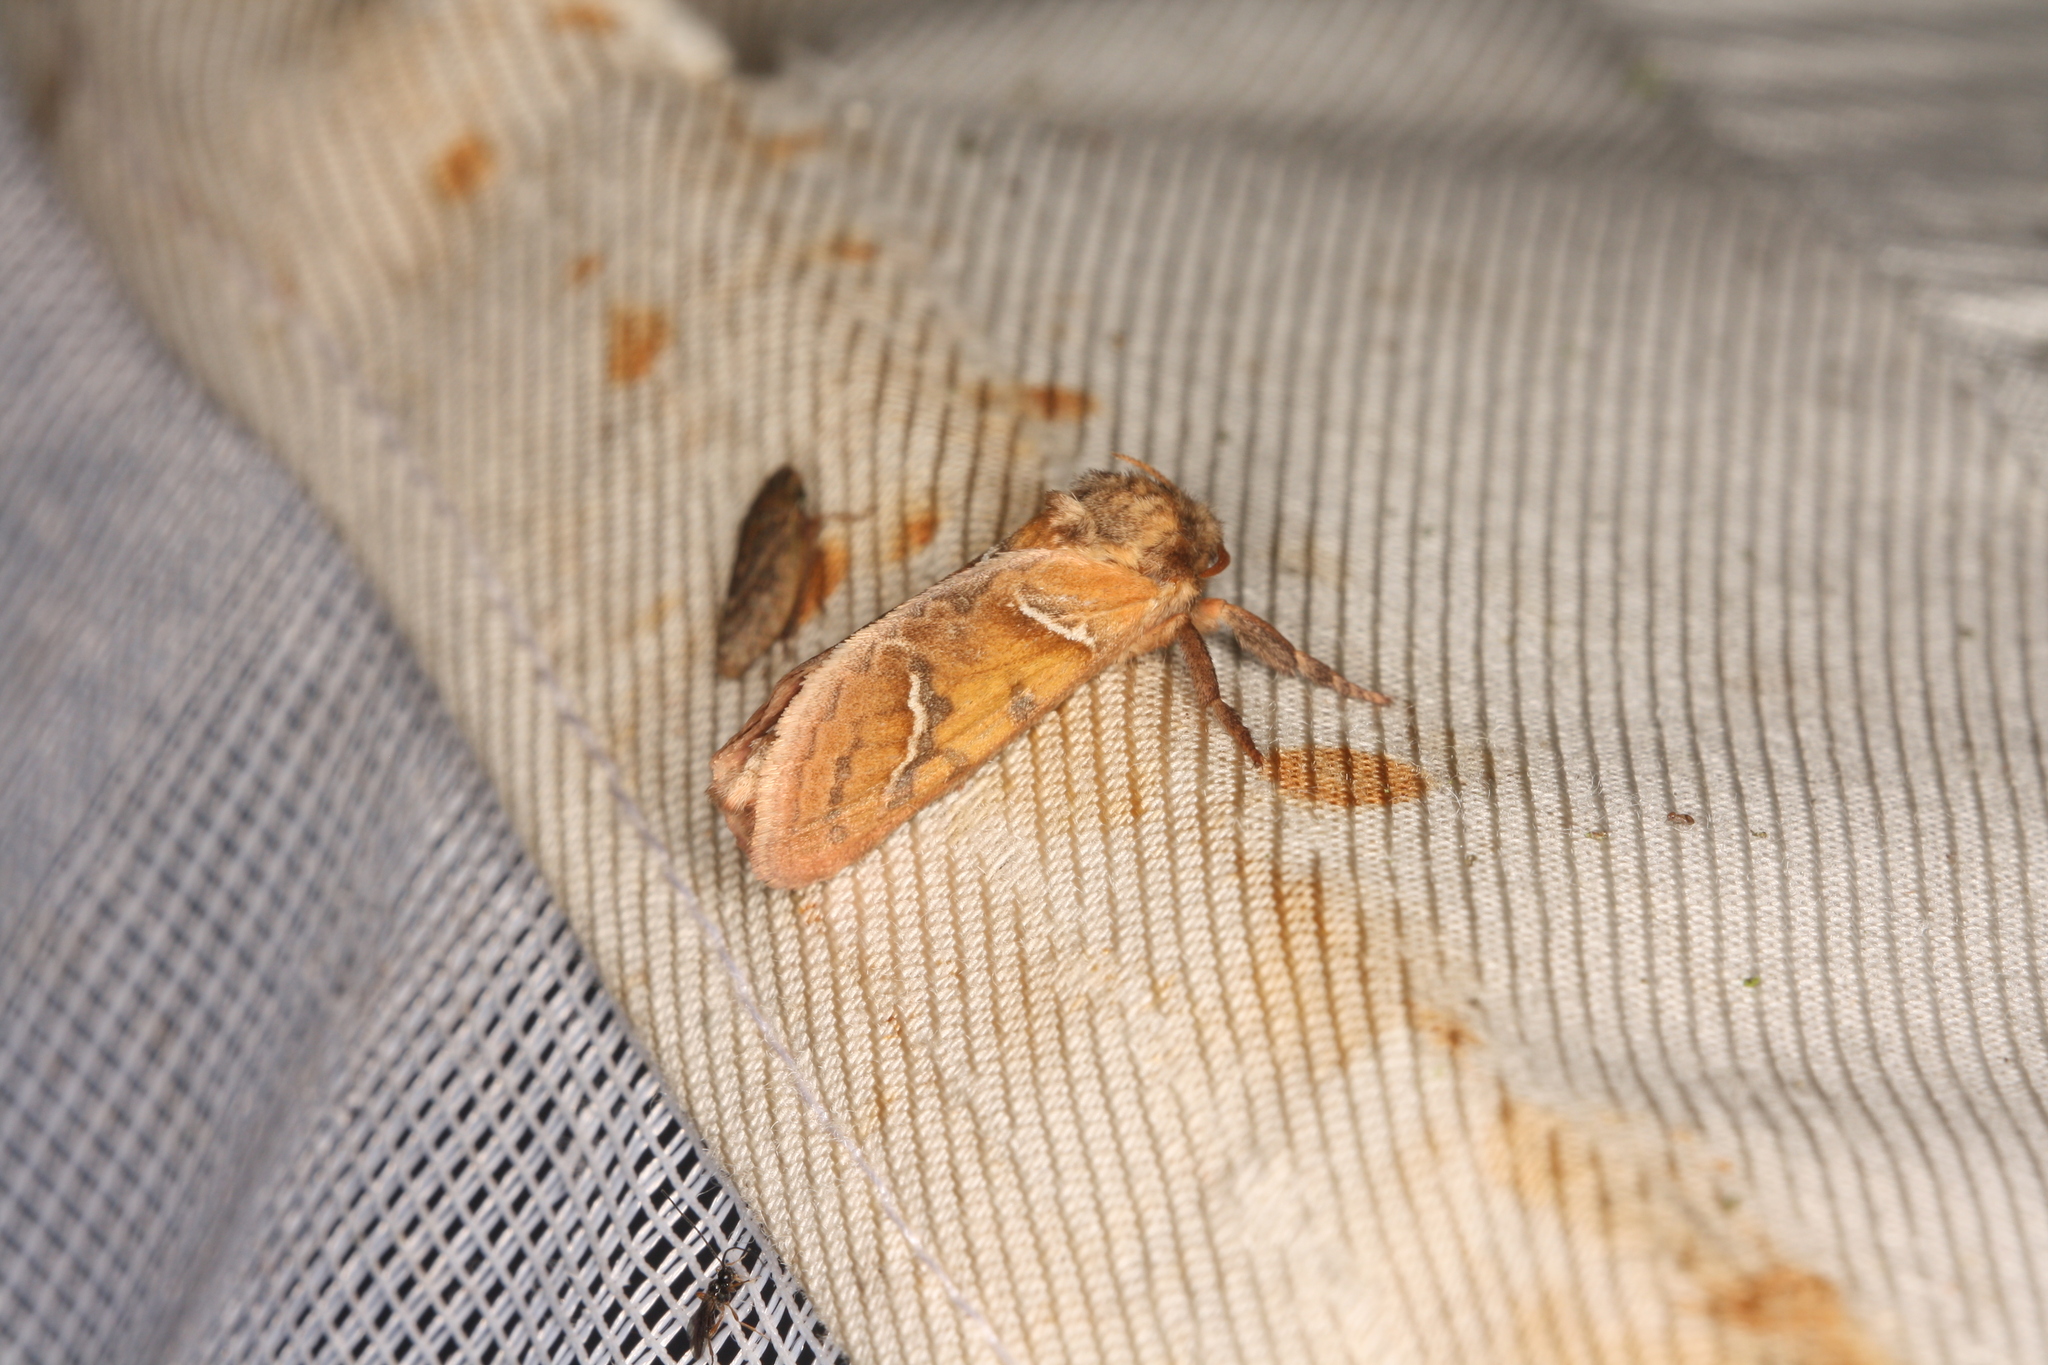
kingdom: Animalia
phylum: Arthropoda
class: Insecta
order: Lepidoptera
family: Hepialidae
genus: Triodia
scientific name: Triodia sylvina
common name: Orange swift
